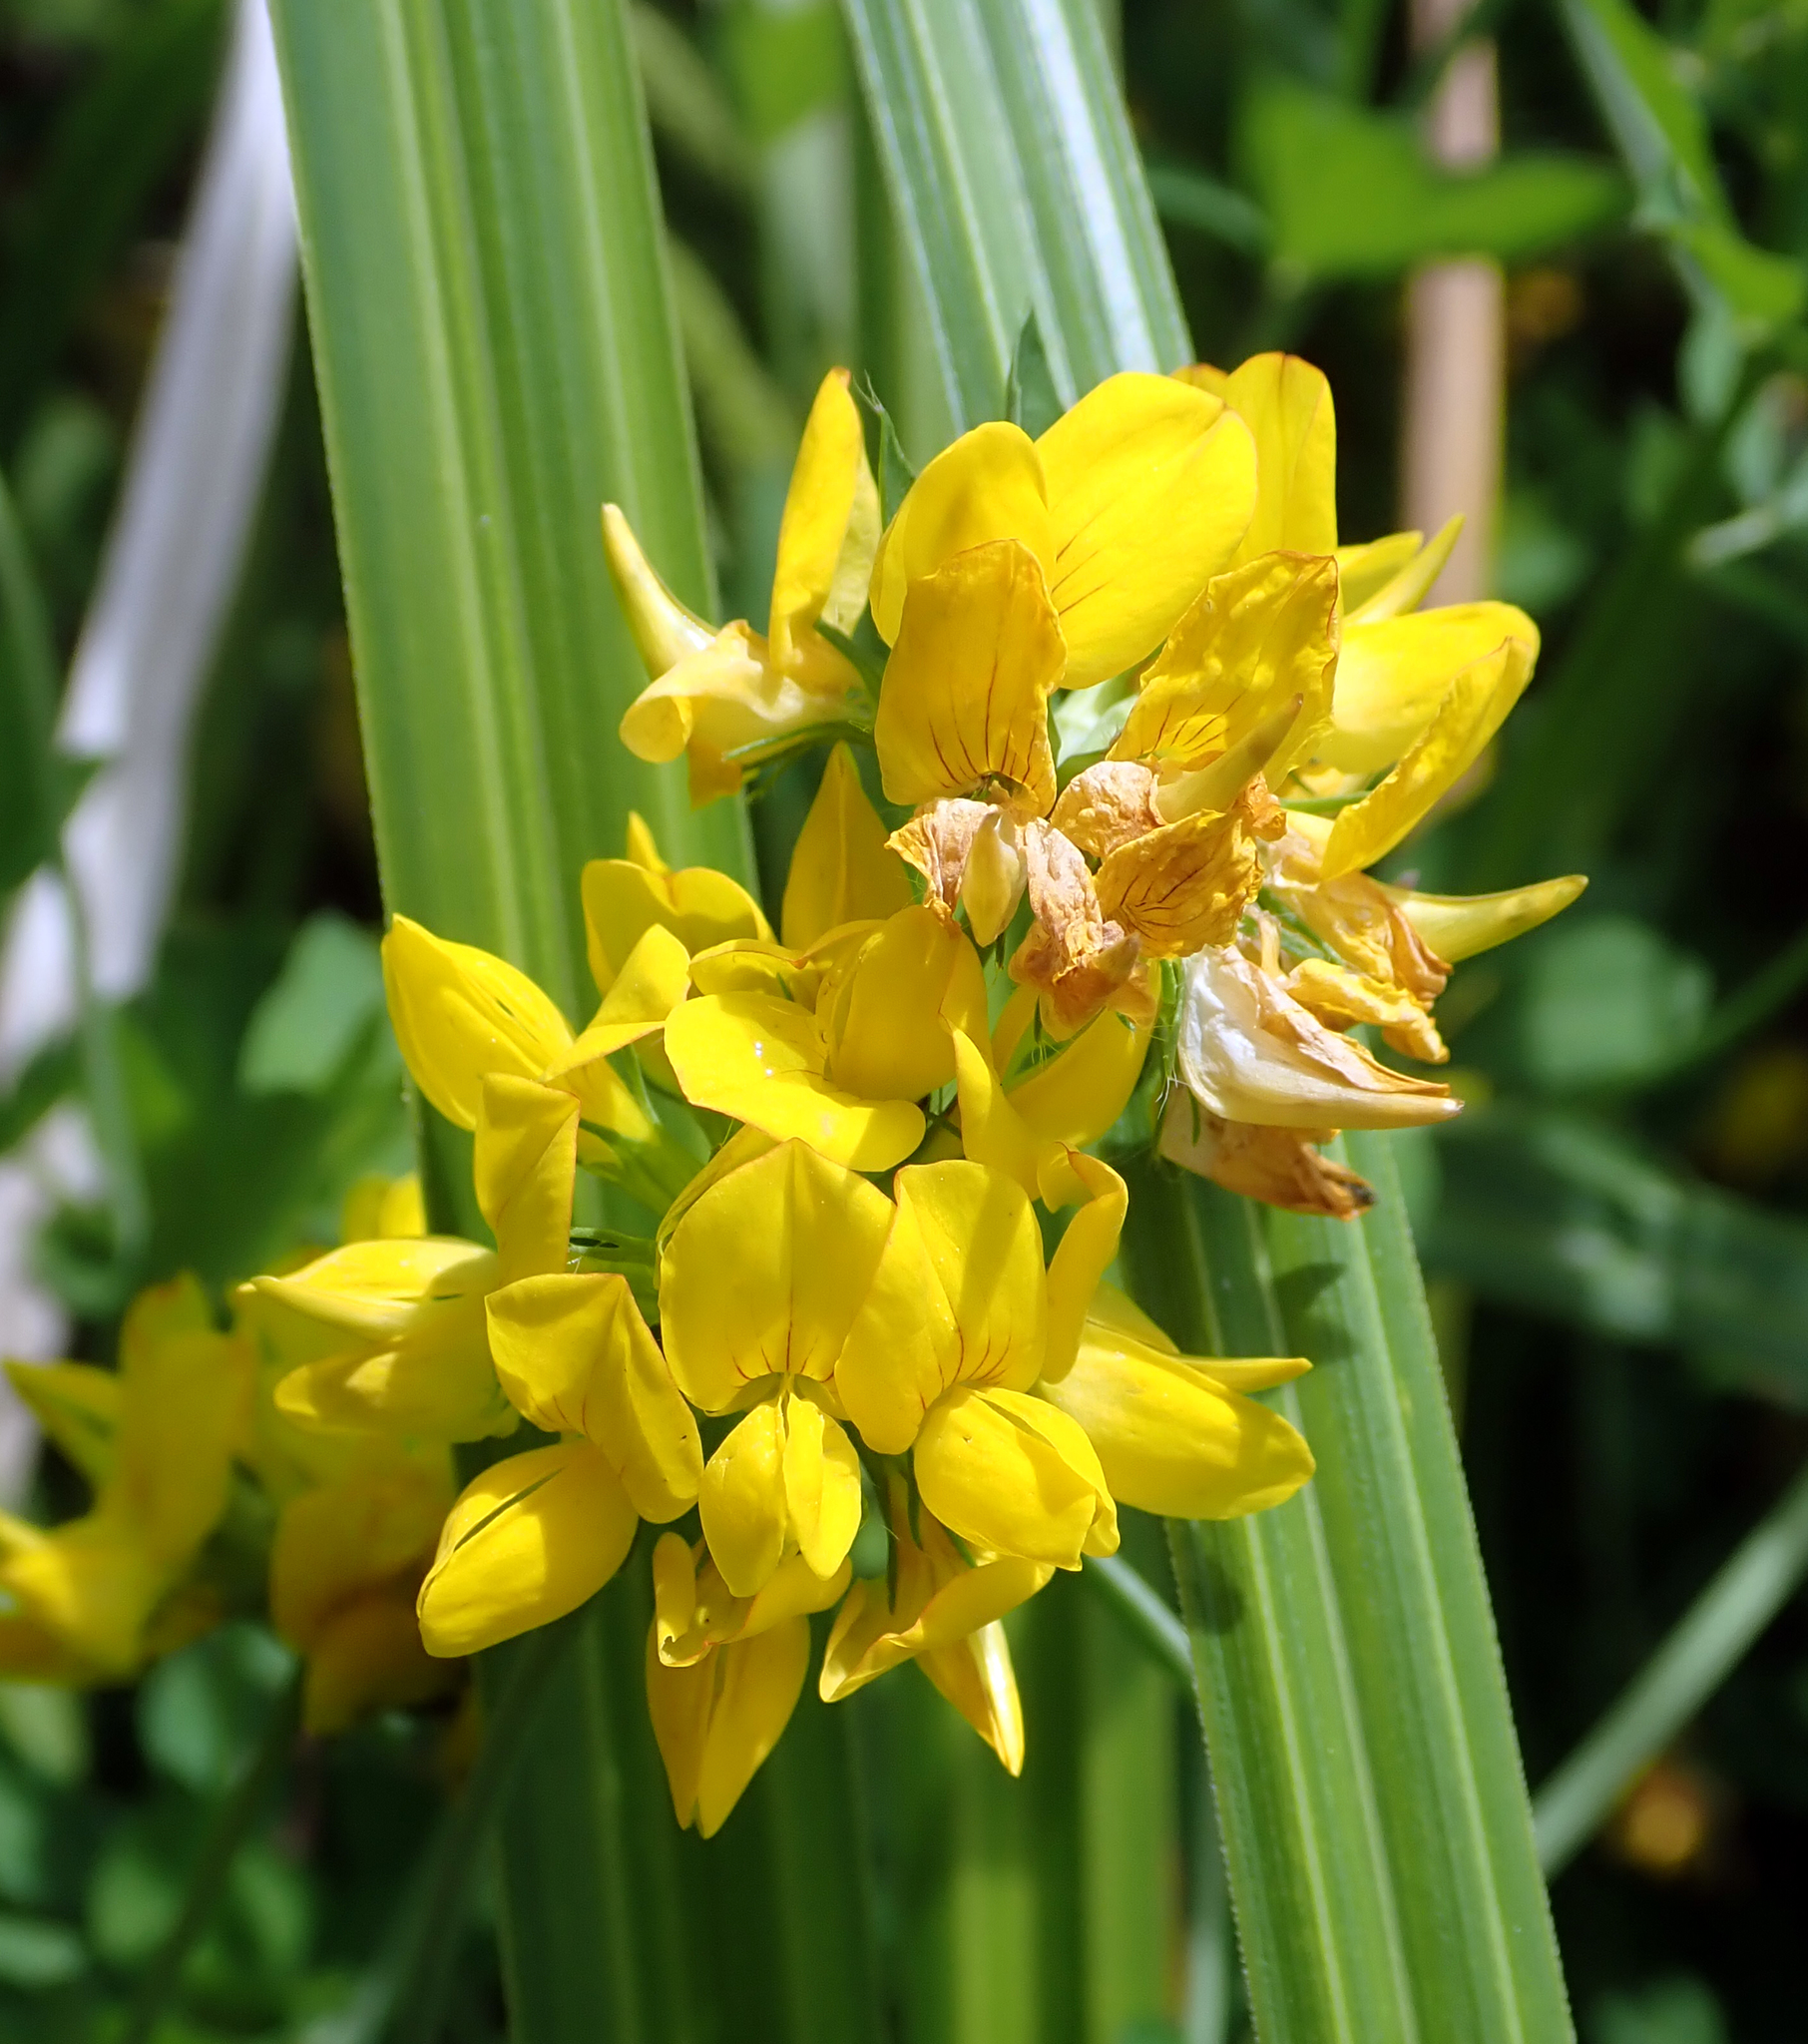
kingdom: Plantae
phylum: Tracheophyta
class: Magnoliopsida
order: Fabales
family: Fabaceae
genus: Lotus
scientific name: Lotus pedunculatus
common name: Greater birdsfoot-trefoil
